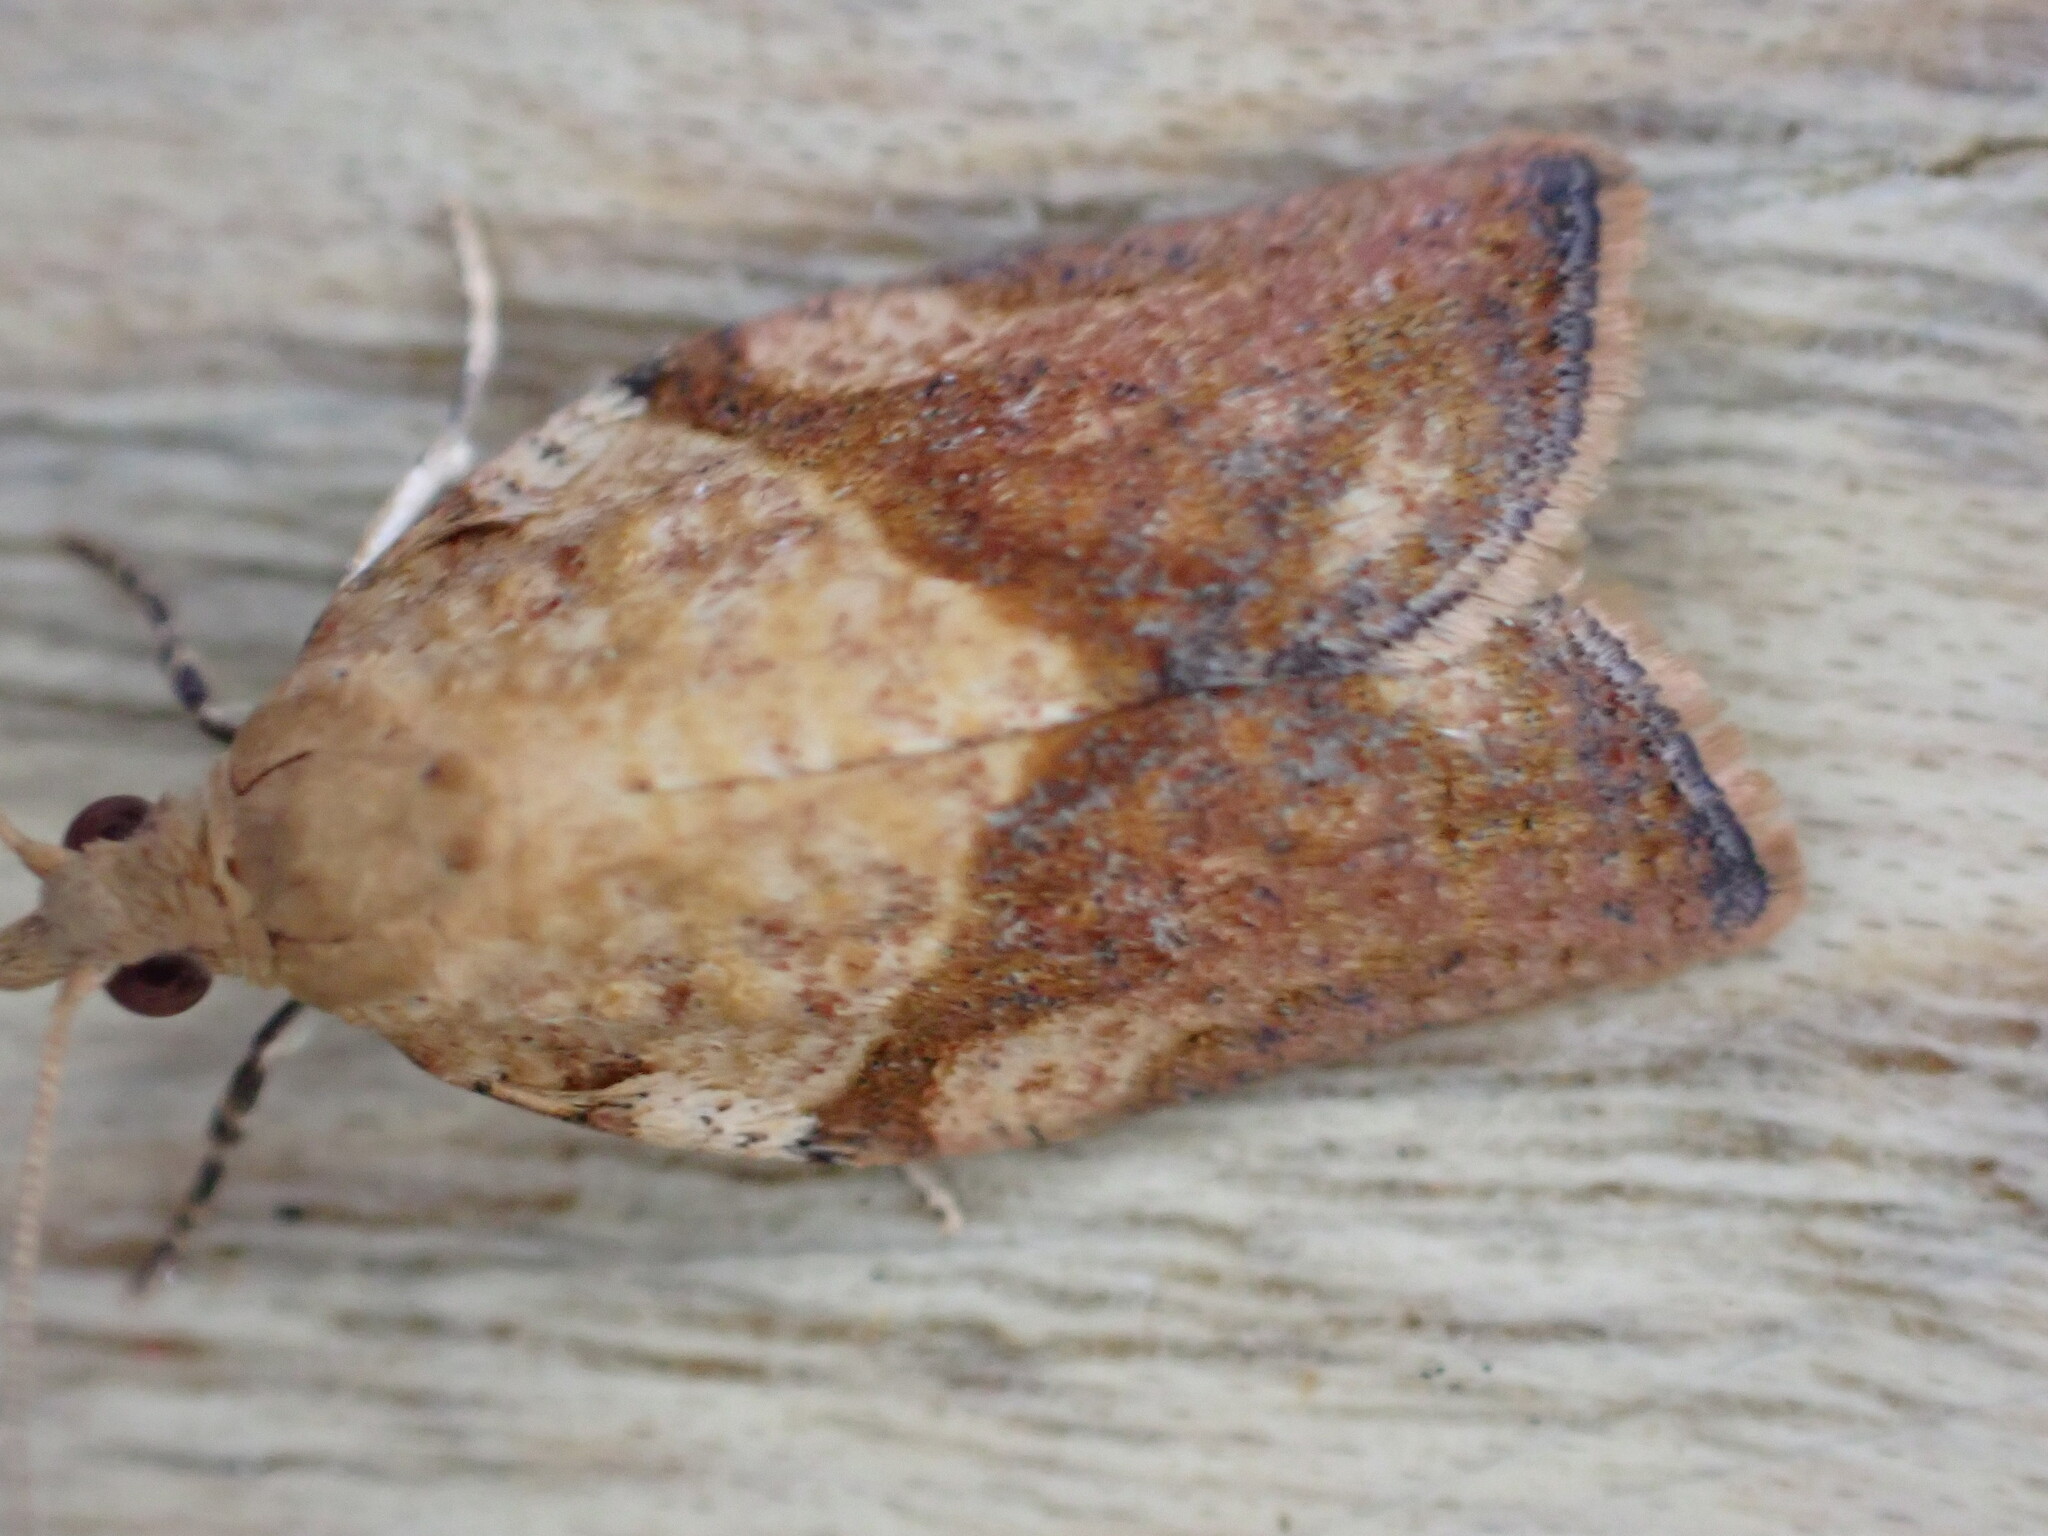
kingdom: Animalia
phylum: Arthropoda
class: Insecta
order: Lepidoptera
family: Tortricidae
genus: Epiphyas
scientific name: Epiphyas postvittana
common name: Light brown apple moth
